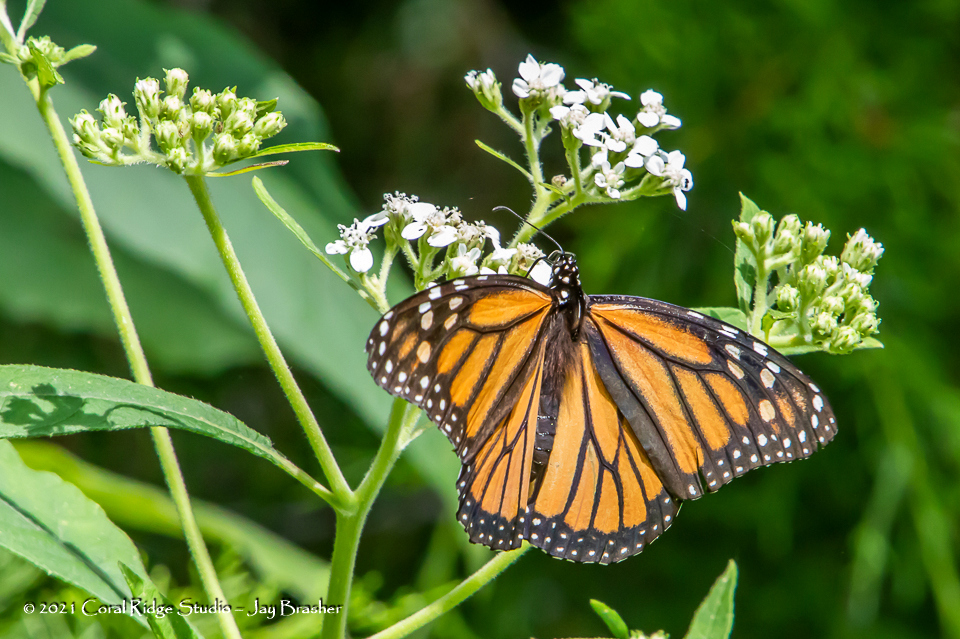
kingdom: Animalia
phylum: Arthropoda
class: Insecta
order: Lepidoptera
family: Nymphalidae
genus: Danaus
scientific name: Danaus plexippus
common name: Monarch
